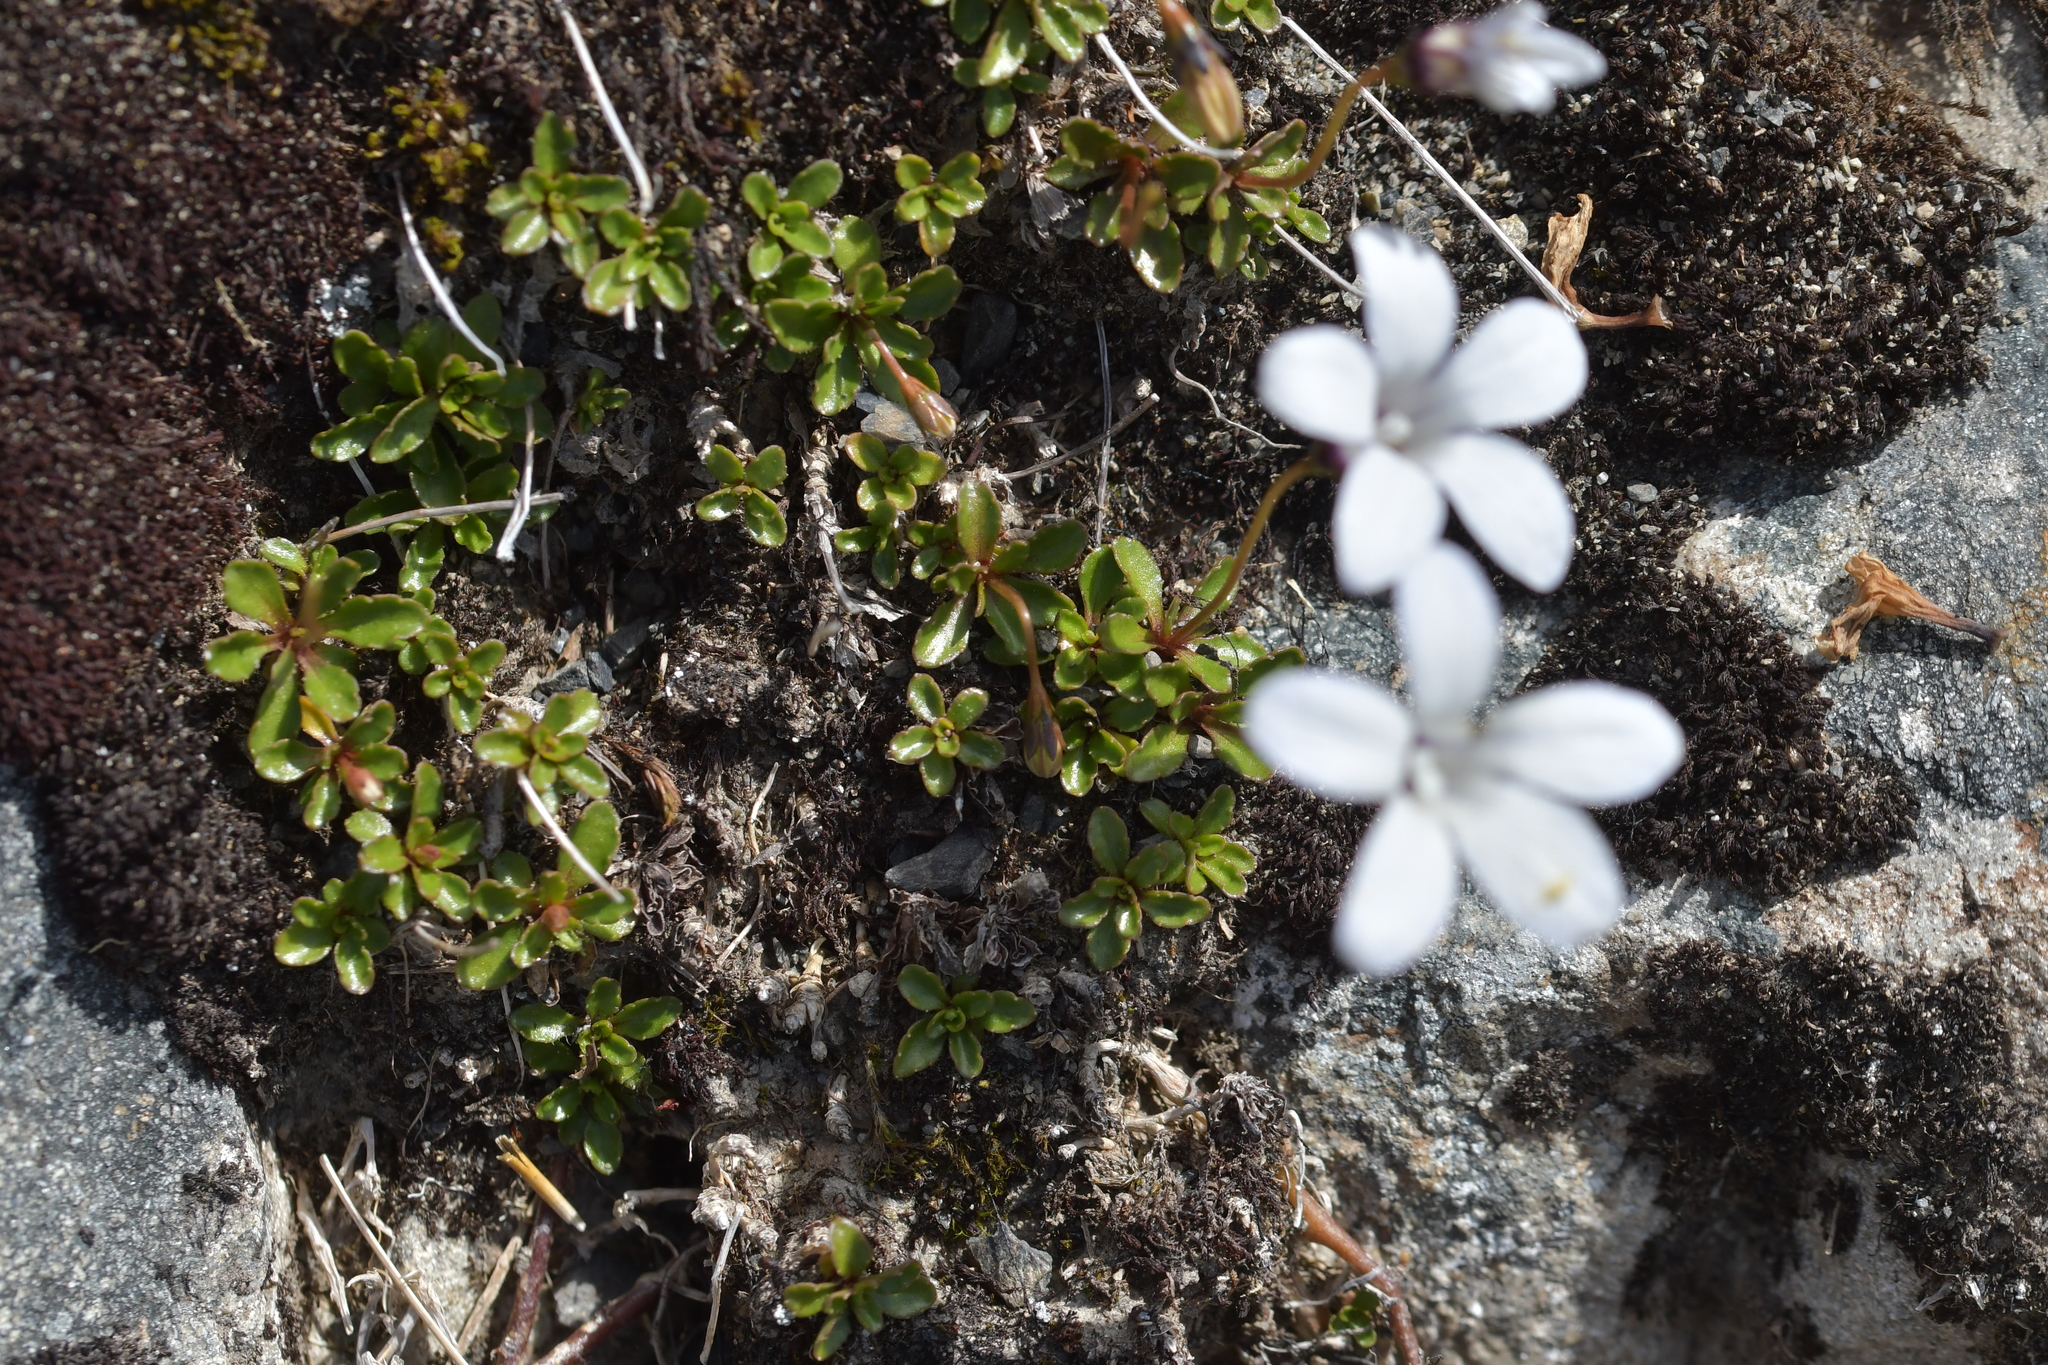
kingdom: Plantae
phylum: Tracheophyta
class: Magnoliopsida
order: Asterales
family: Campanulaceae
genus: Wahlenbergia
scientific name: Wahlenbergia albomarginata
